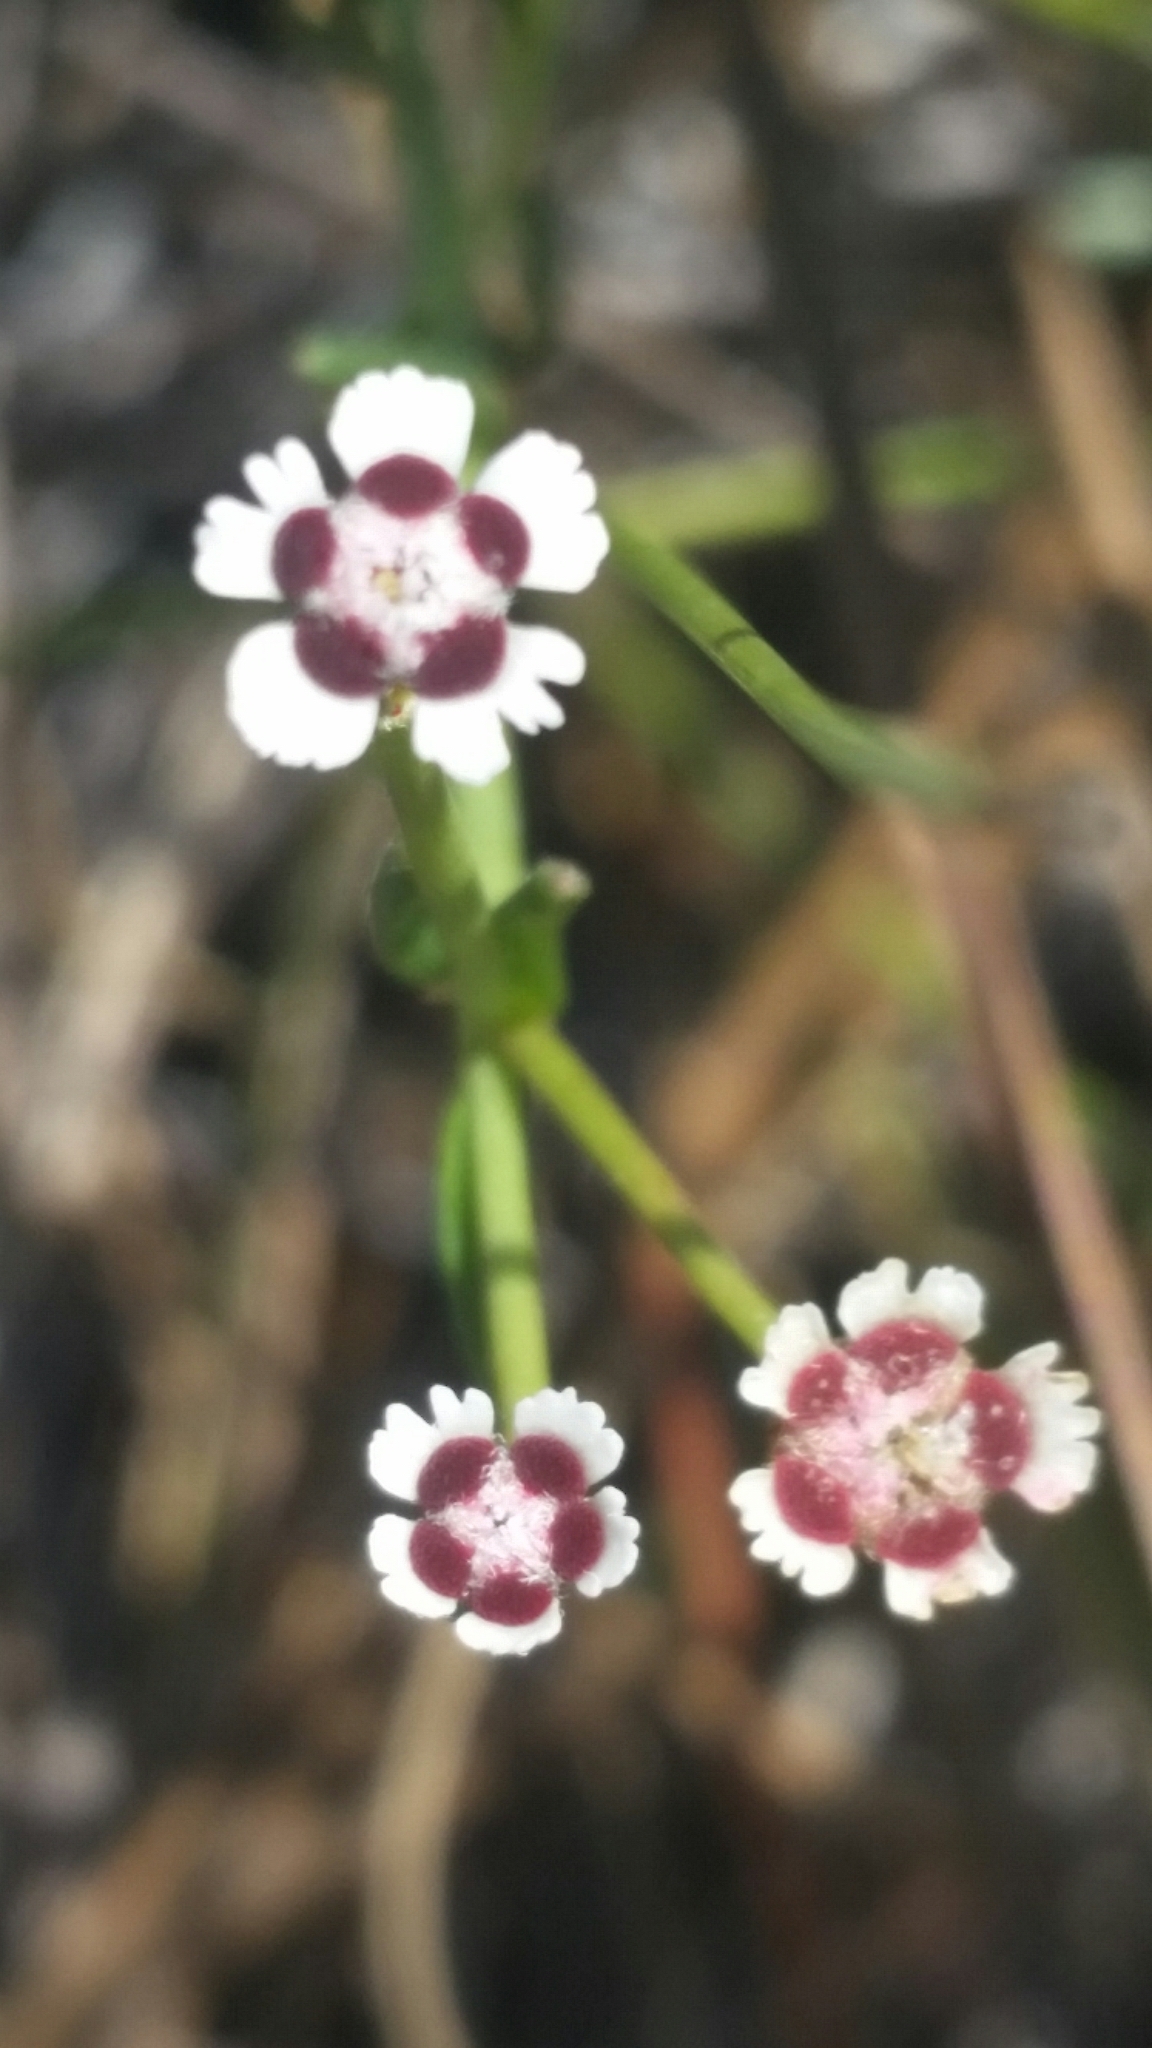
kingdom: Plantae
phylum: Tracheophyta
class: Magnoliopsida
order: Malpighiales
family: Euphorbiaceae
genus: Euphorbia
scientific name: Euphorbia polyphylla
